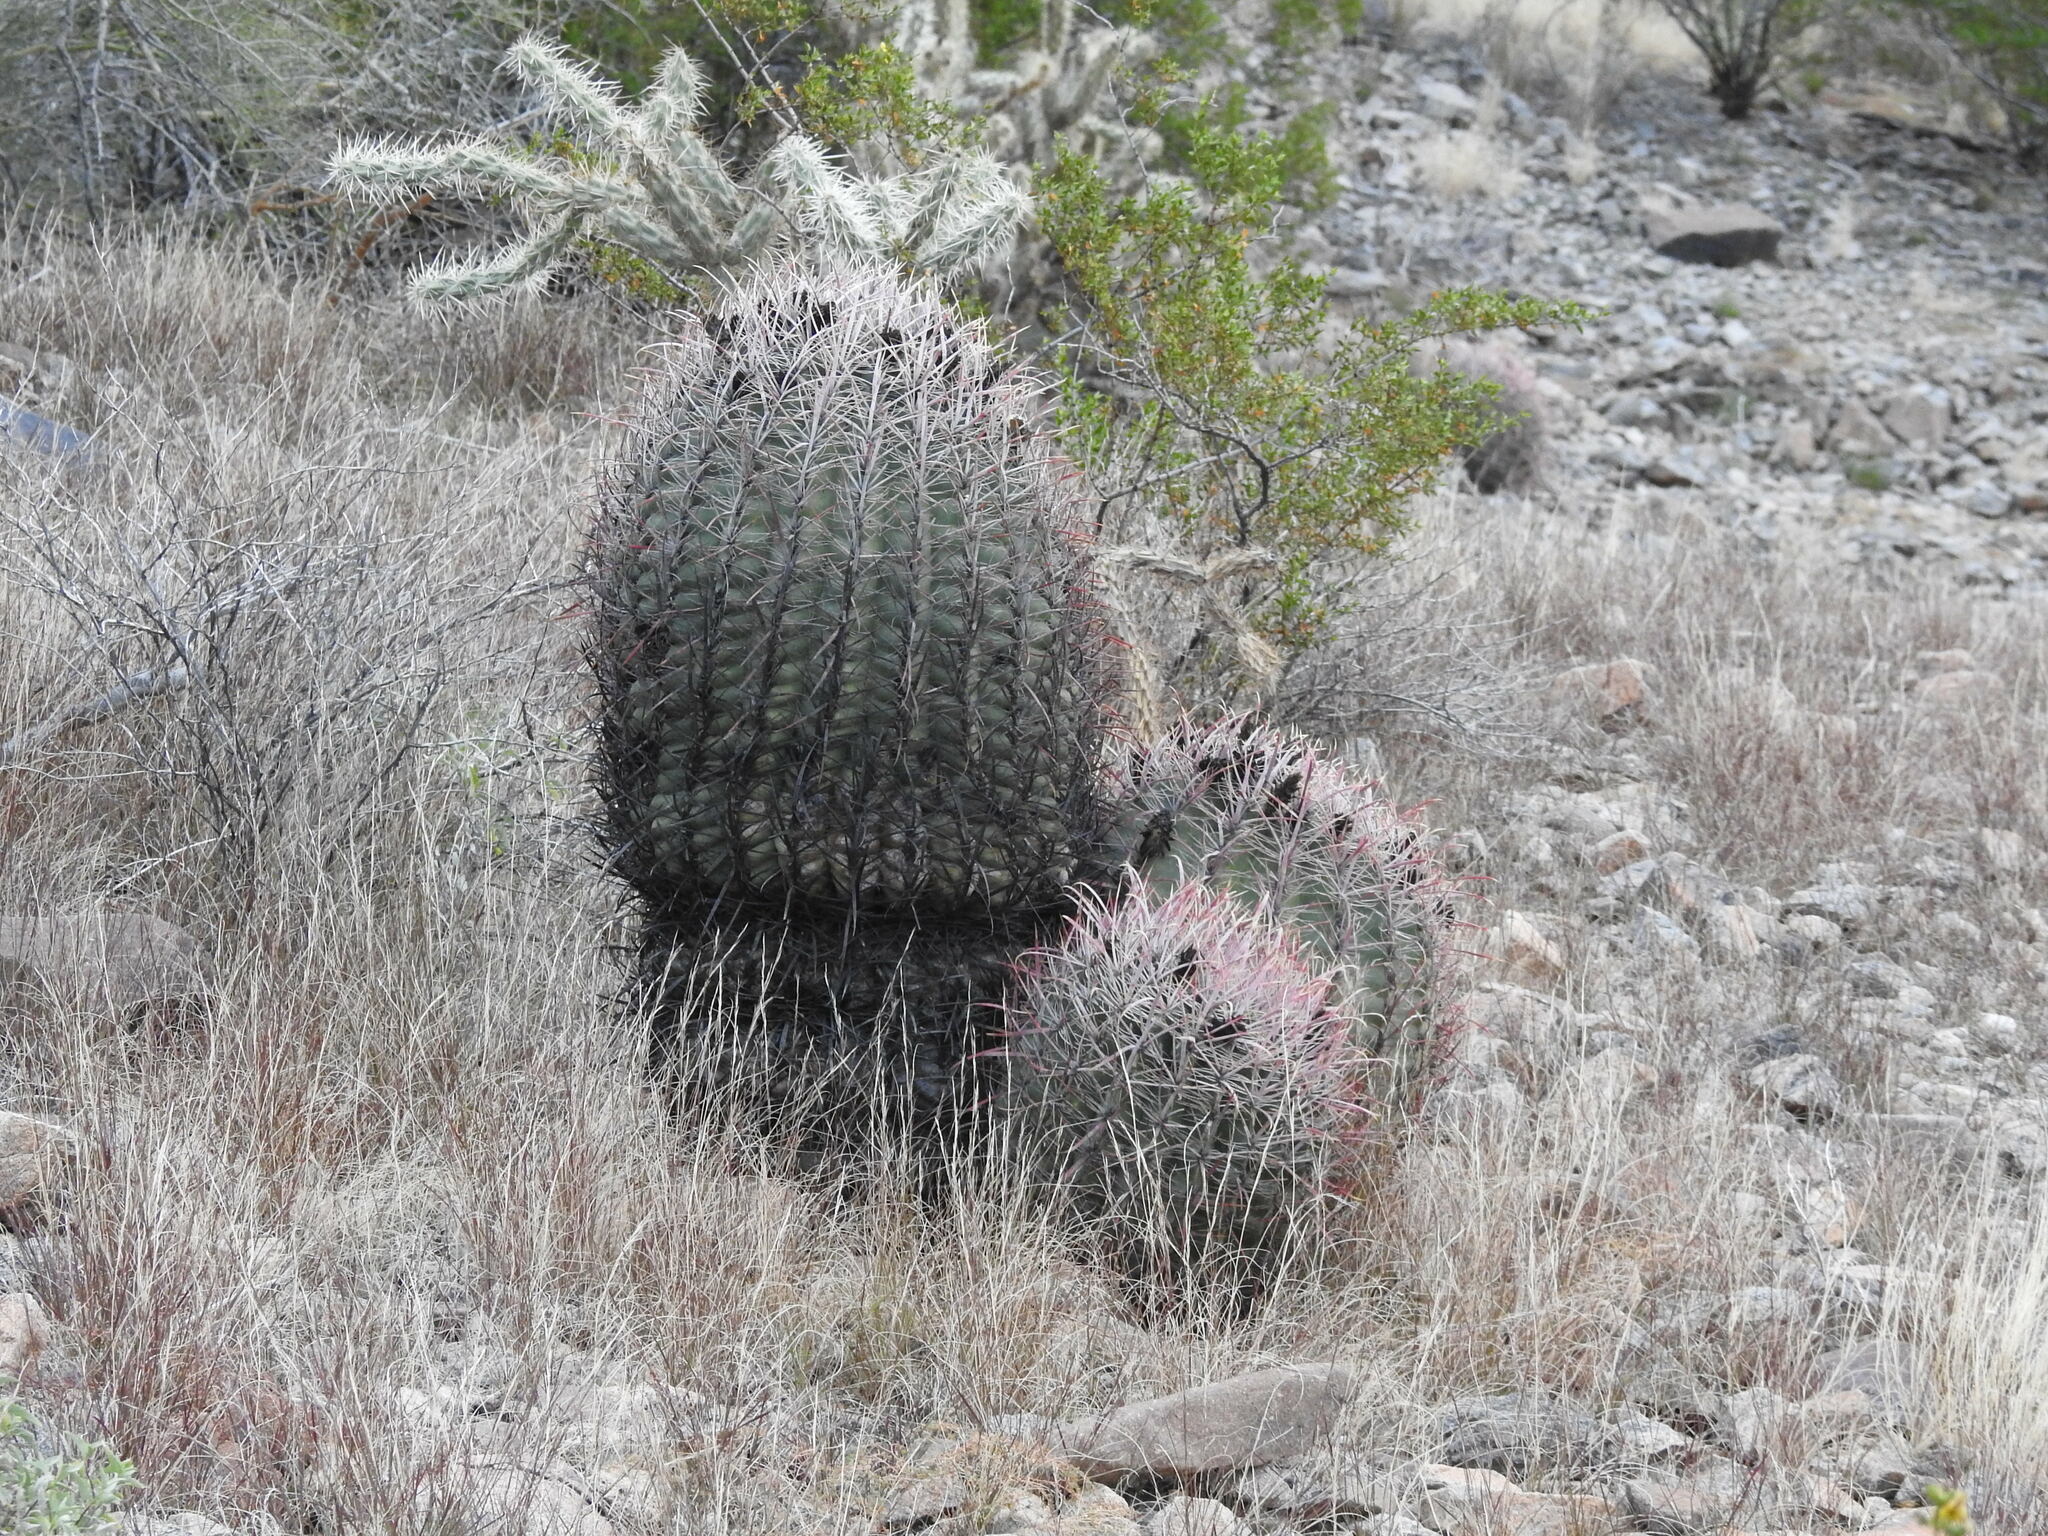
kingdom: Plantae
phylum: Tracheophyta
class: Magnoliopsida
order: Caryophyllales
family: Cactaceae
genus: Ferocactus
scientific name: Ferocactus cylindraceus
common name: California barrel cactus
